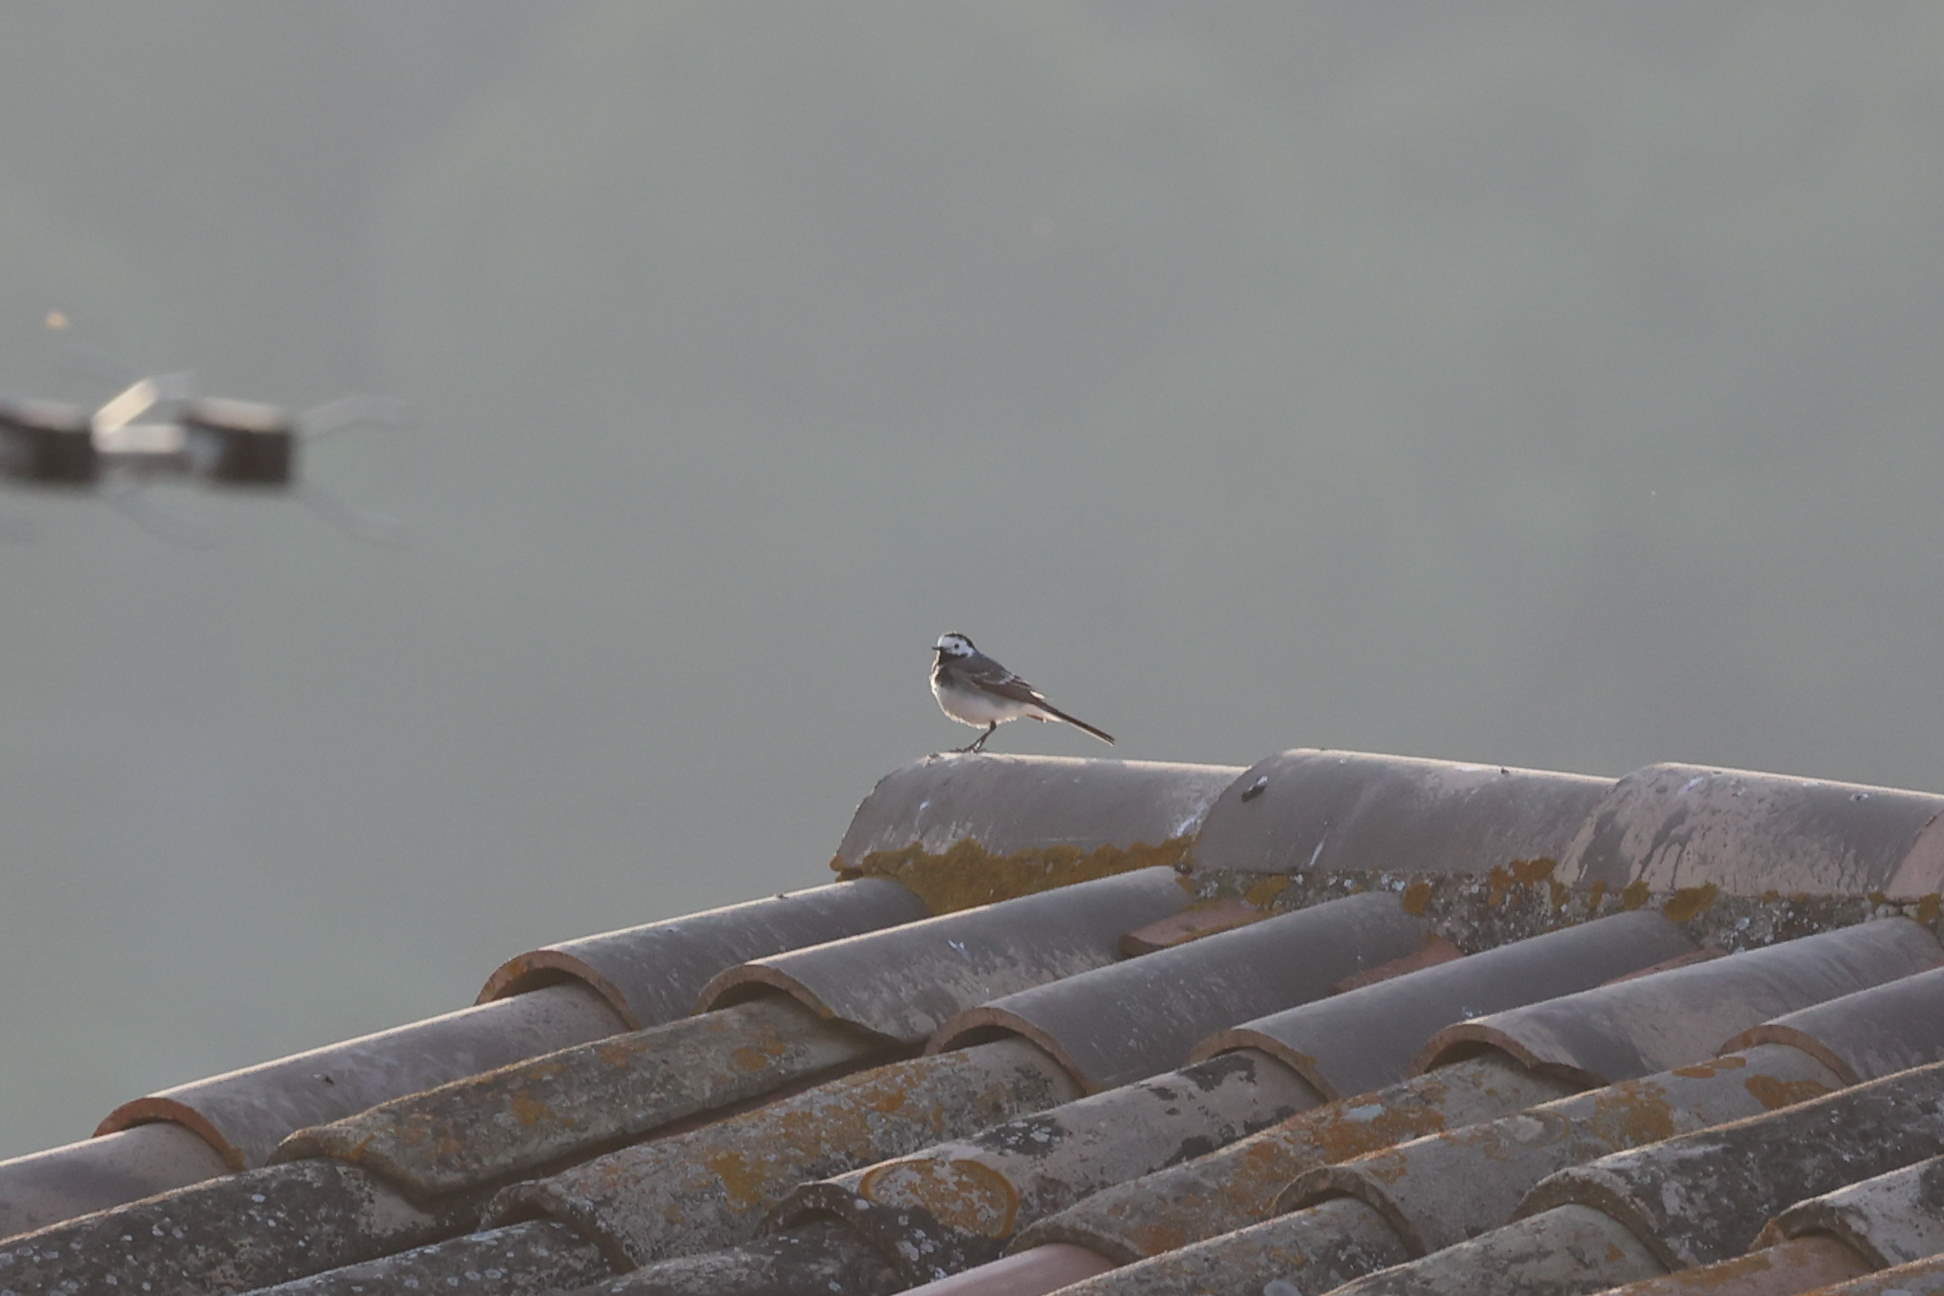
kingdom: Animalia
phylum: Chordata
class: Aves
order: Passeriformes
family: Motacillidae
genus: Motacilla
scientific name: Motacilla alba
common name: White wagtail
